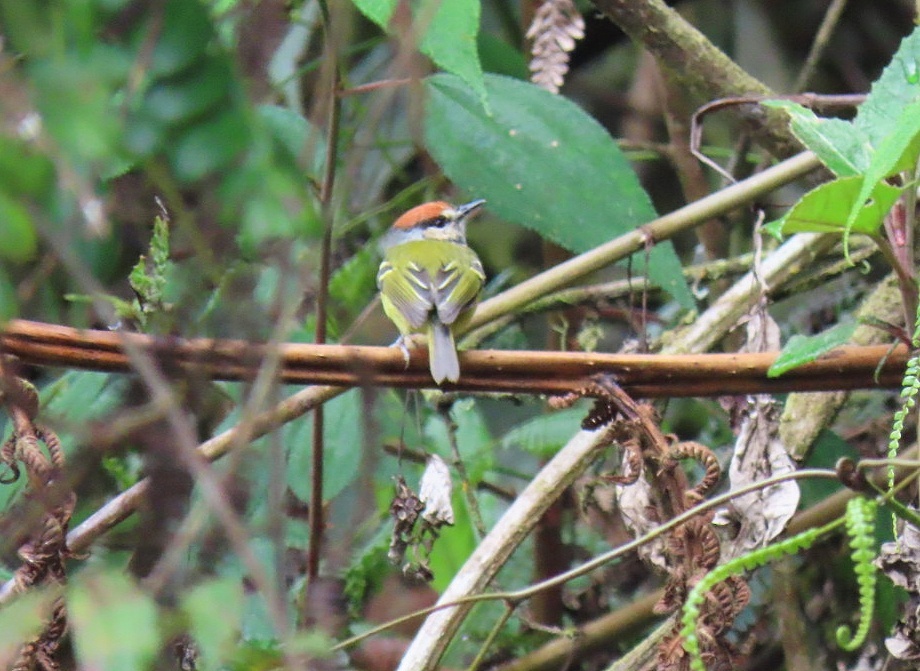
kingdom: Animalia
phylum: Chordata
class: Aves
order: Passeriformes
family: Tyrannidae
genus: Poecilotriccus
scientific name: Poecilotriccus ruficeps
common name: Rufous-crowned tody-flycatcher
